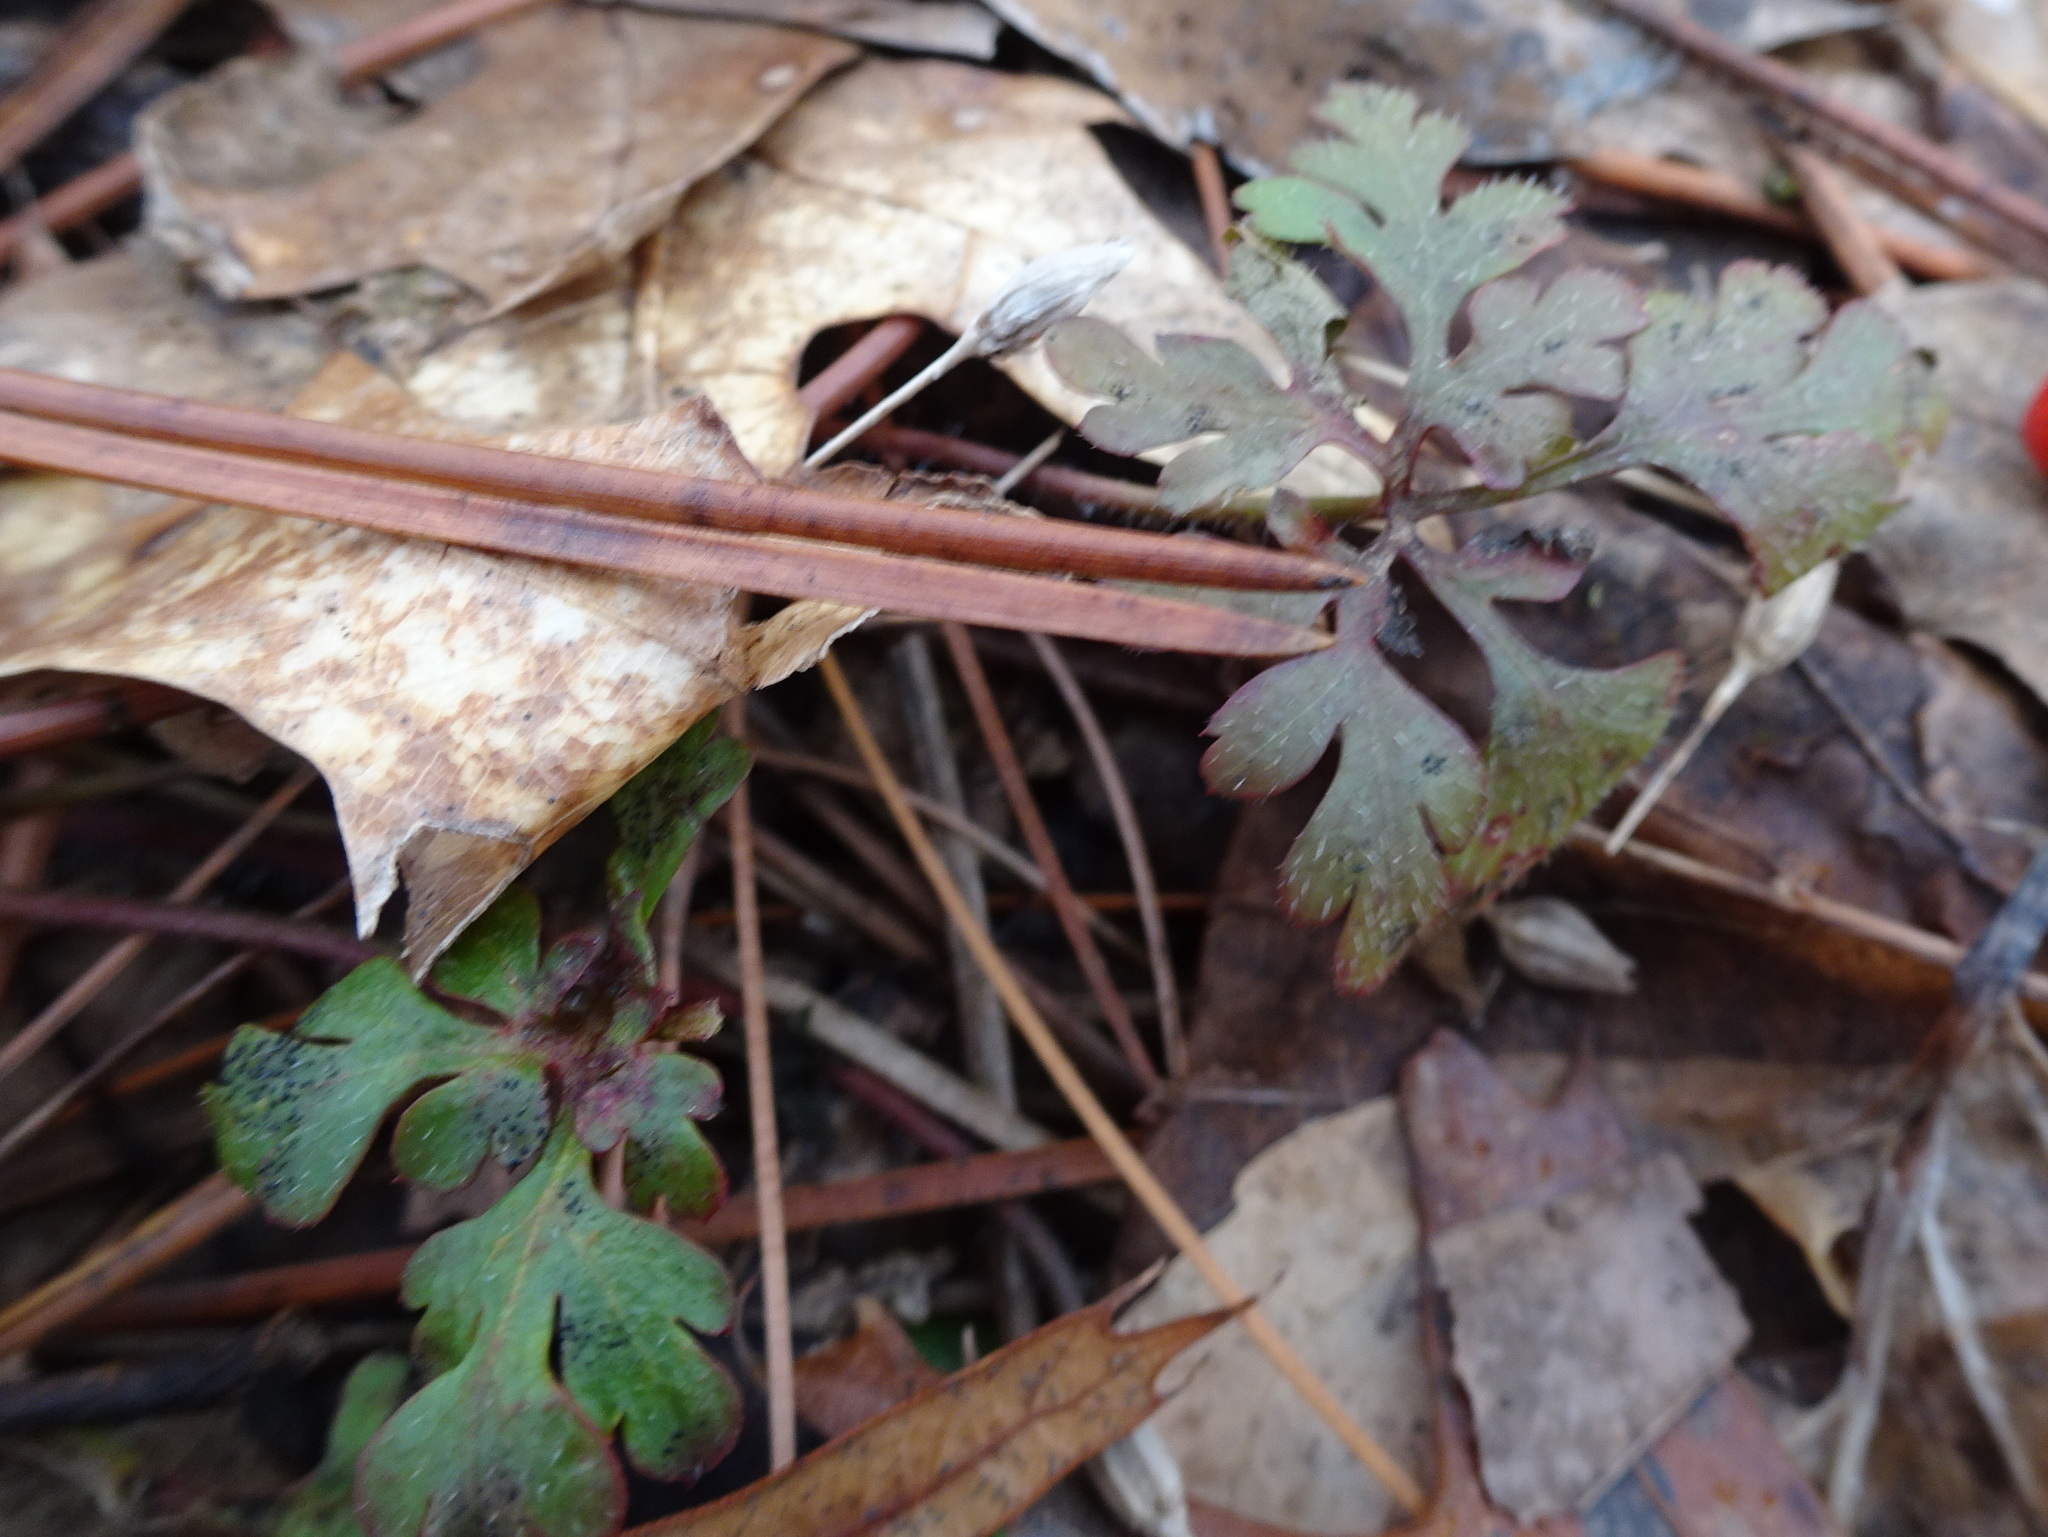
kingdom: Plantae
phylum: Tracheophyta
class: Magnoliopsida
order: Geraniales
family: Geraniaceae
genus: Geranium
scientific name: Geranium robertianum
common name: Herb-robert
